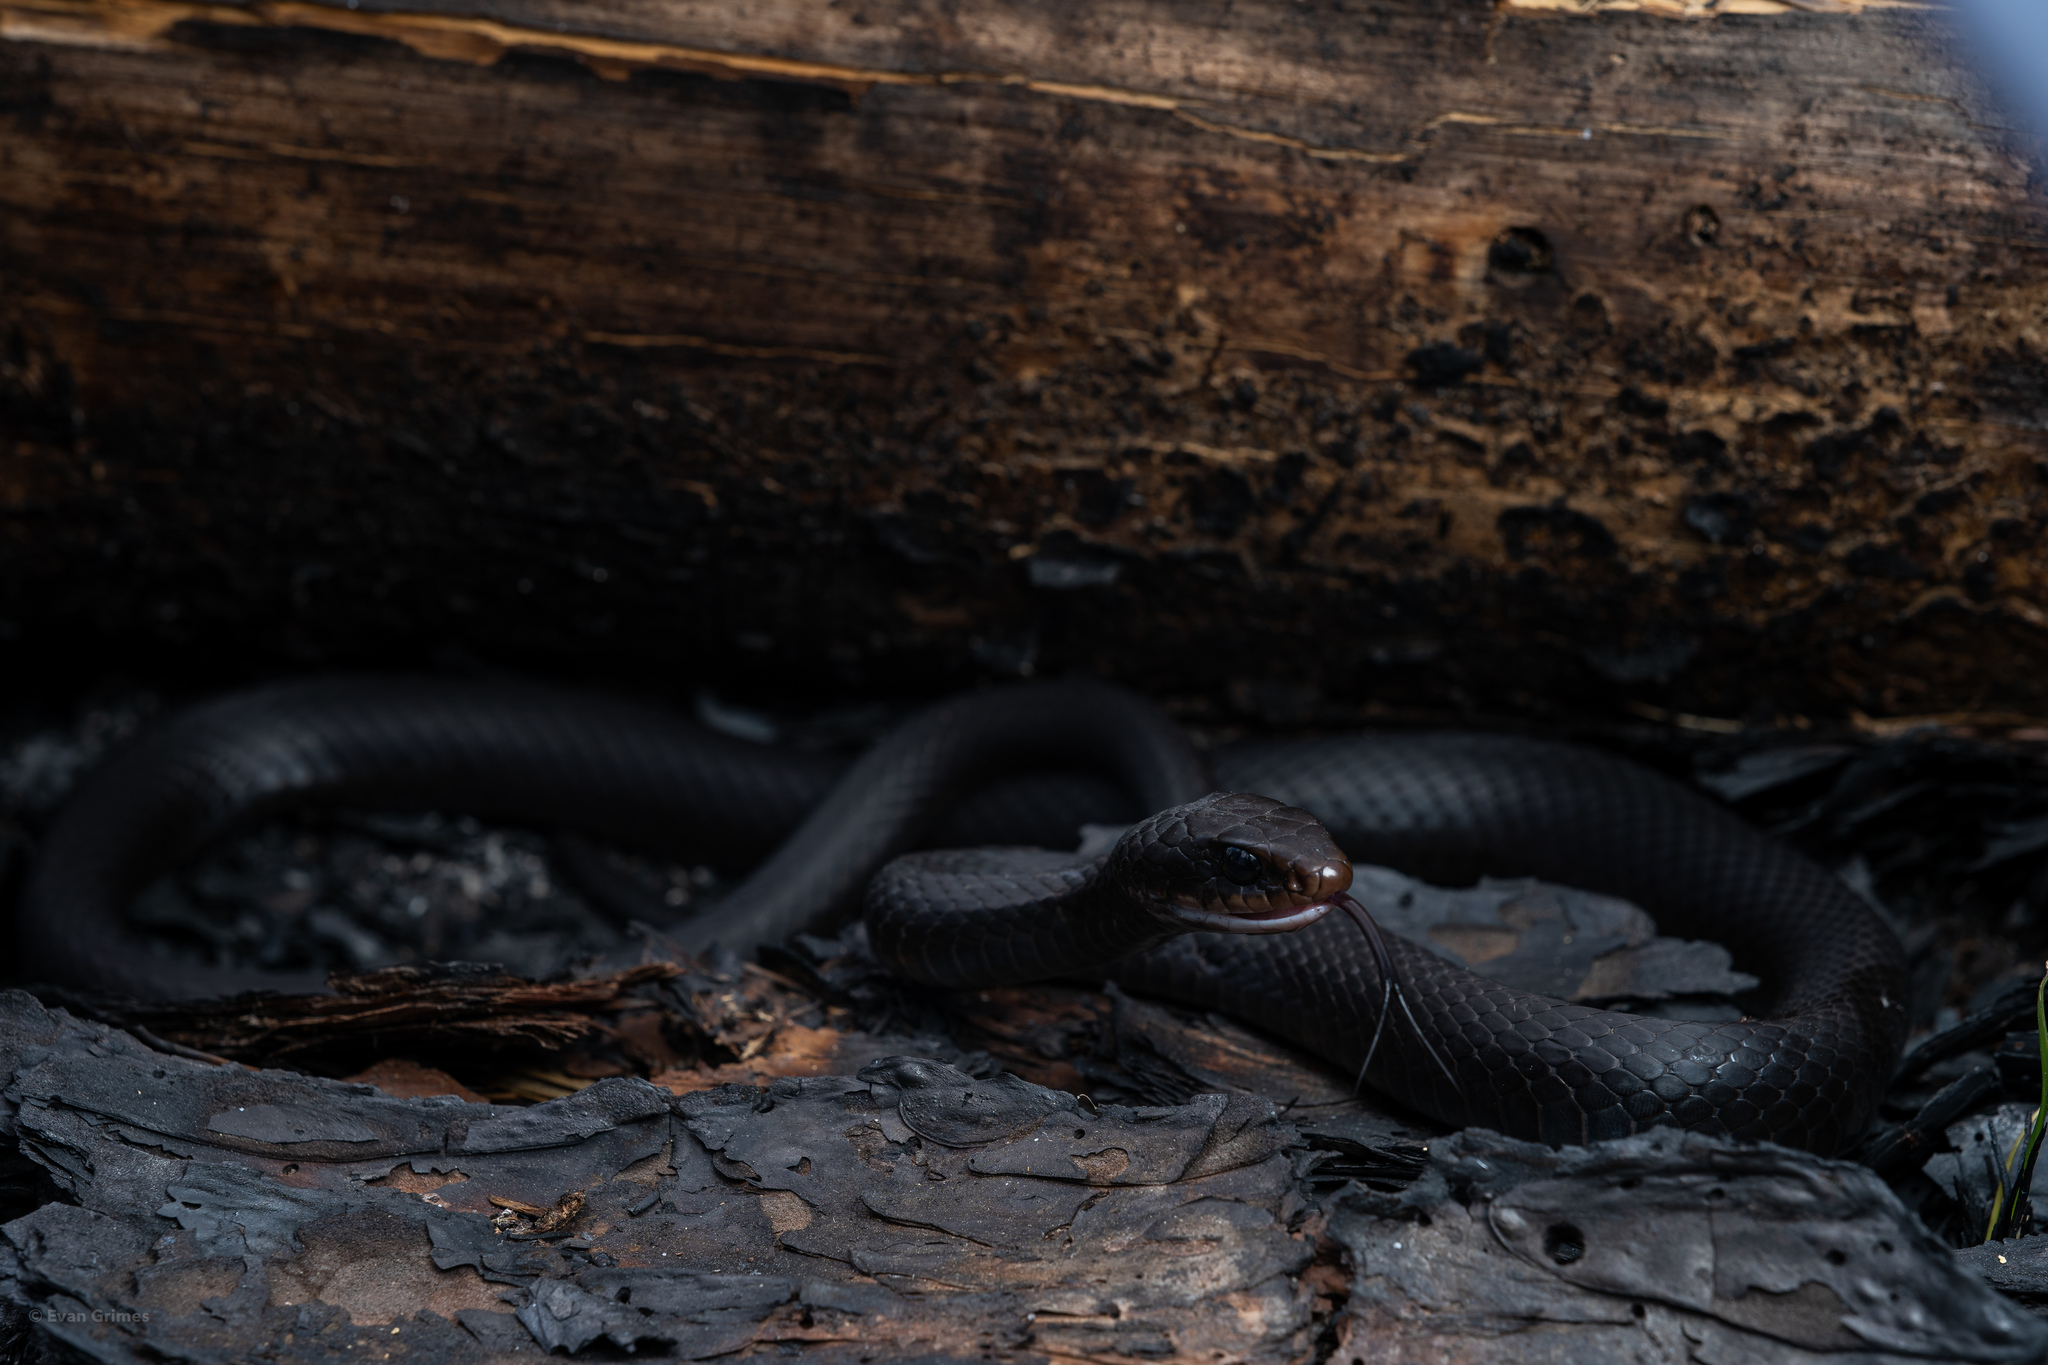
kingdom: Animalia
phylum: Chordata
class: Squamata
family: Colubridae
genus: Coluber
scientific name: Coluber constrictor
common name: Eastern racer
